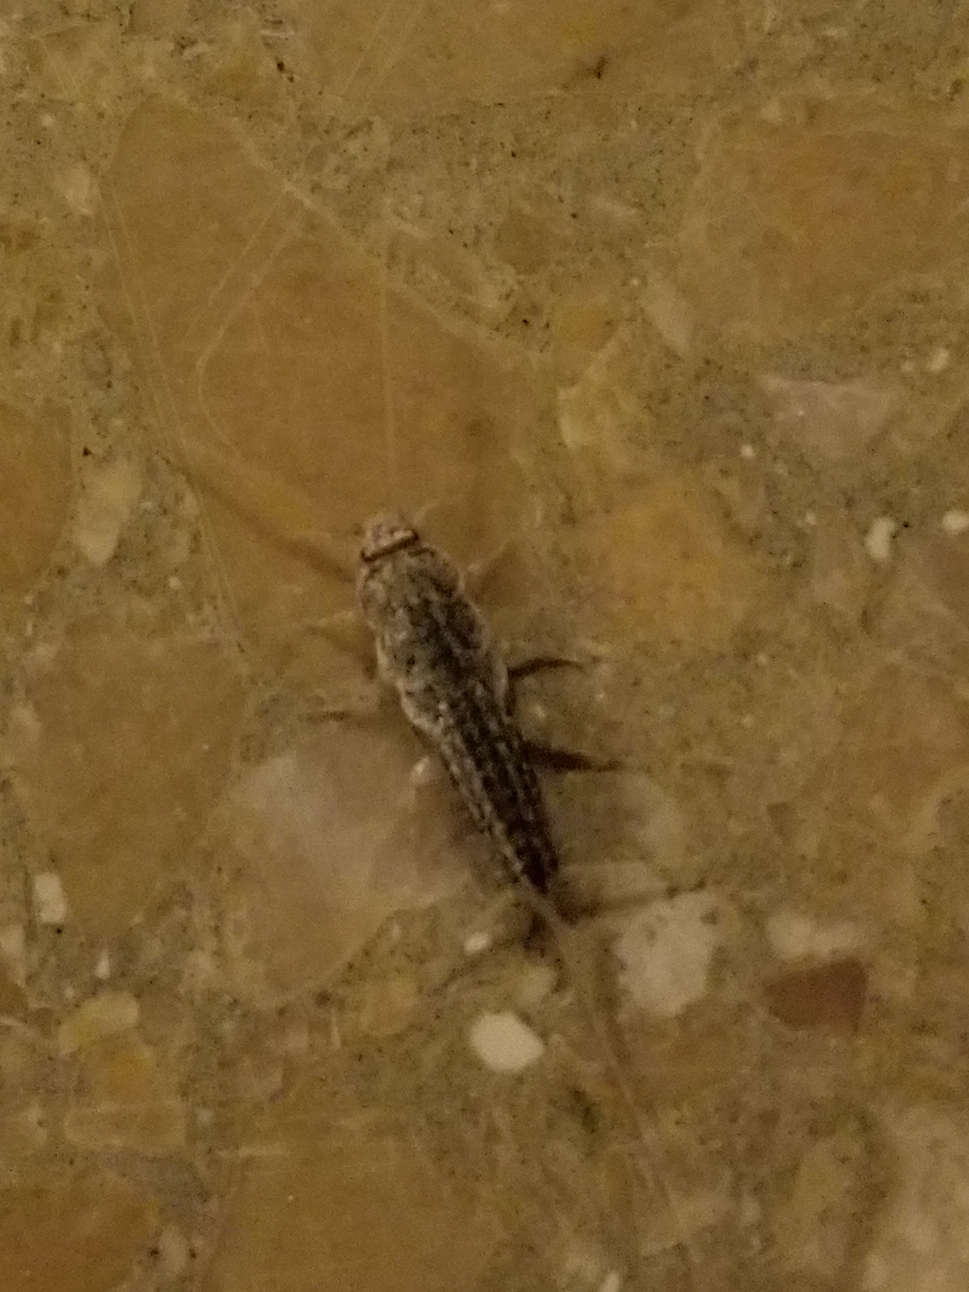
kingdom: Animalia
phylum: Arthropoda
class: Insecta
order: Zygentoma
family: Lepismatidae
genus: Ctenolepisma
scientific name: Ctenolepisma lineata
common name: Four-lined silverfish
